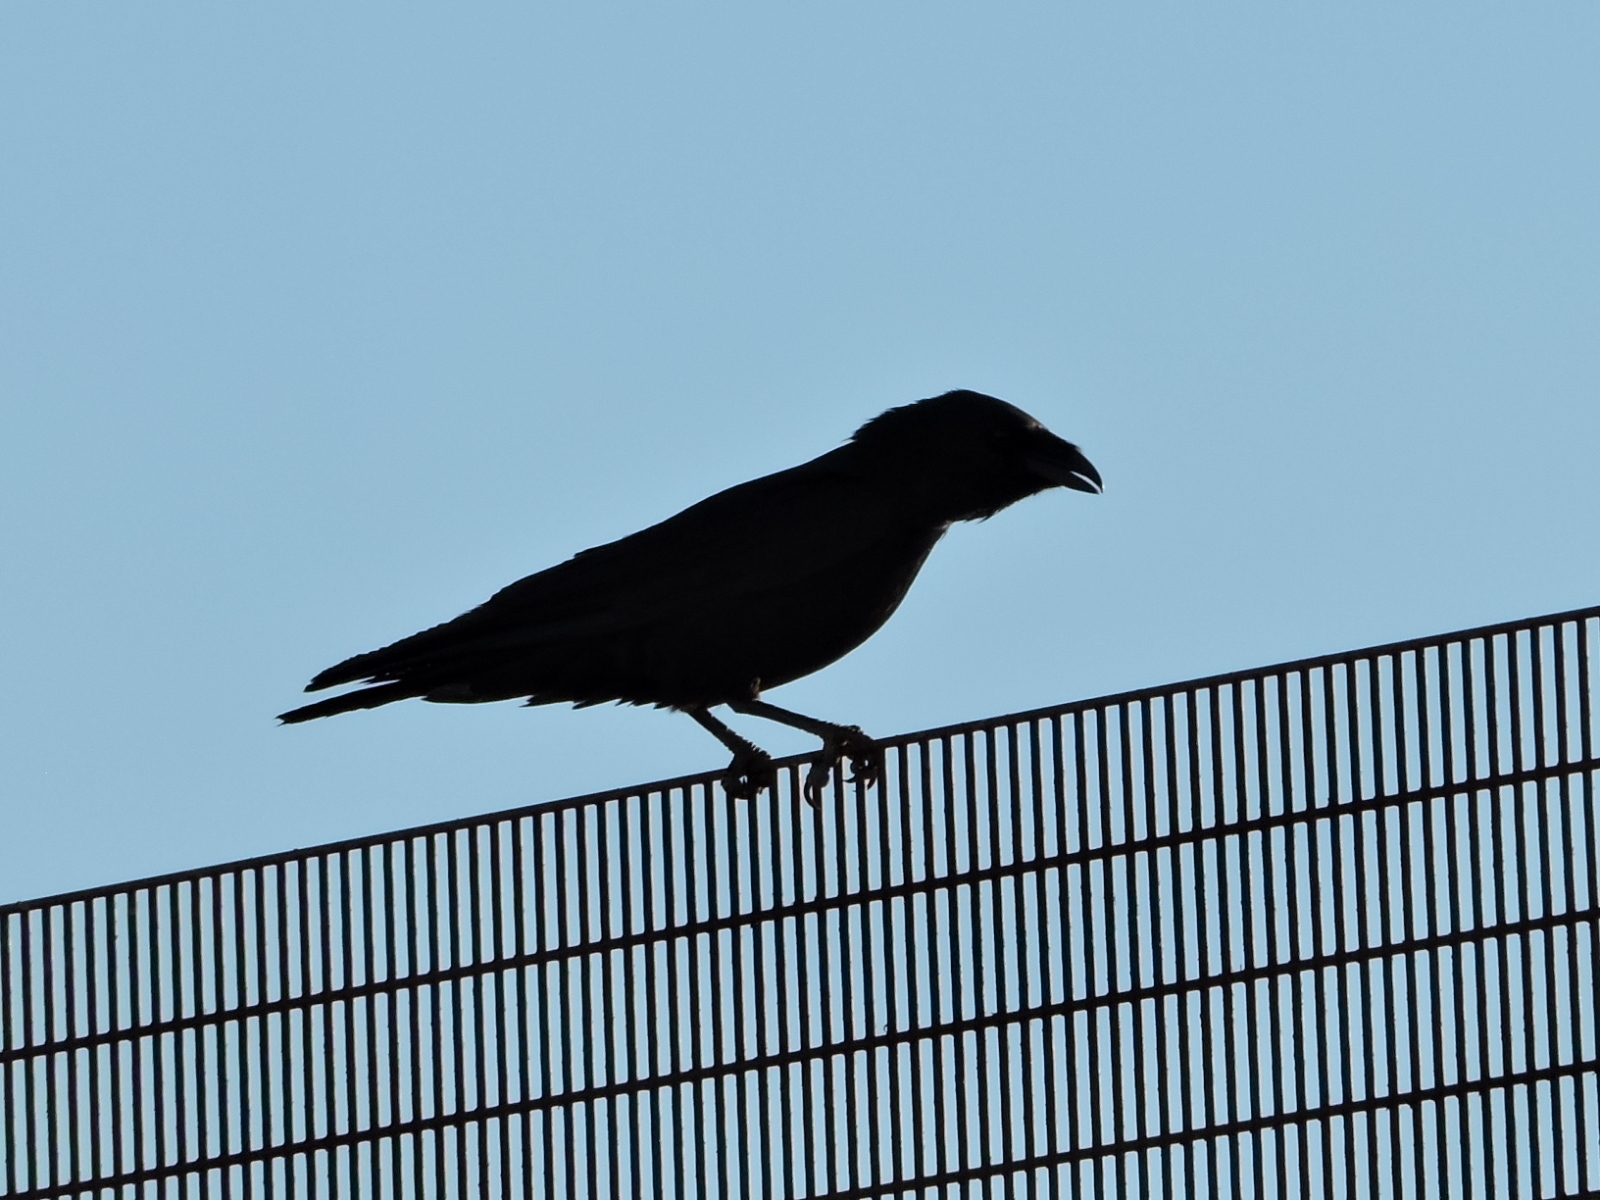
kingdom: Animalia
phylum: Chordata
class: Aves
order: Passeriformes
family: Corvidae
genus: Corvus
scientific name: Corvus cryptoleucus
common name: Chihuahuan raven
